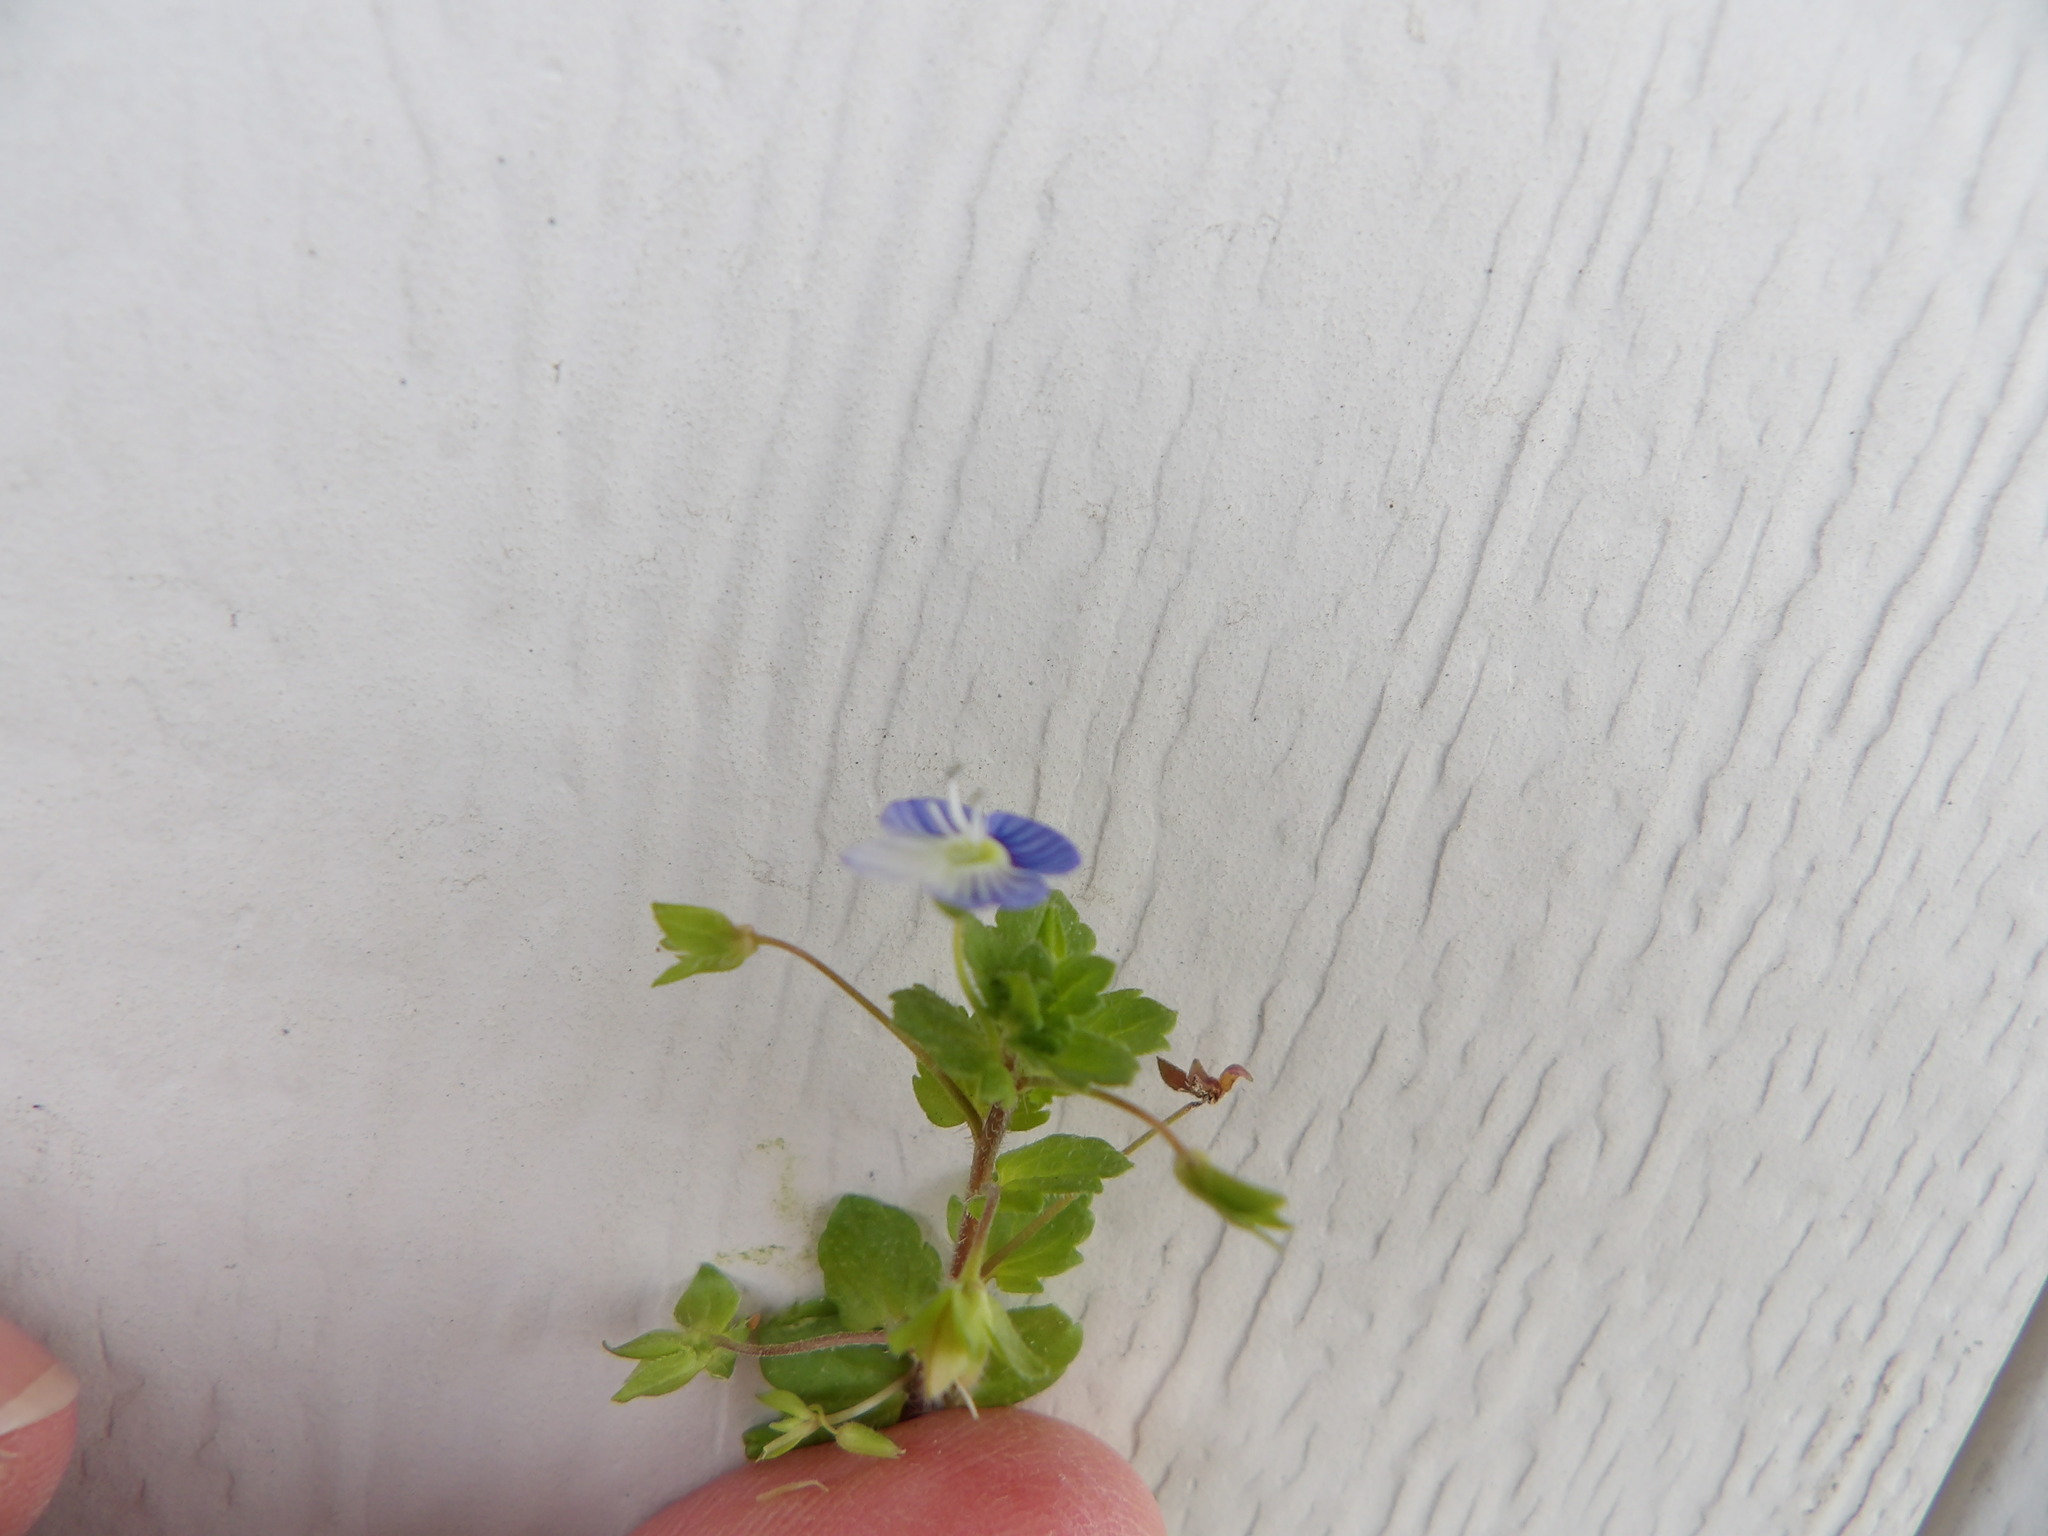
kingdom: Plantae
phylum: Tracheophyta
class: Magnoliopsida
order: Lamiales
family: Plantaginaceae
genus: Veronica
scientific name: Veronica persica
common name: Common field-speedwell
